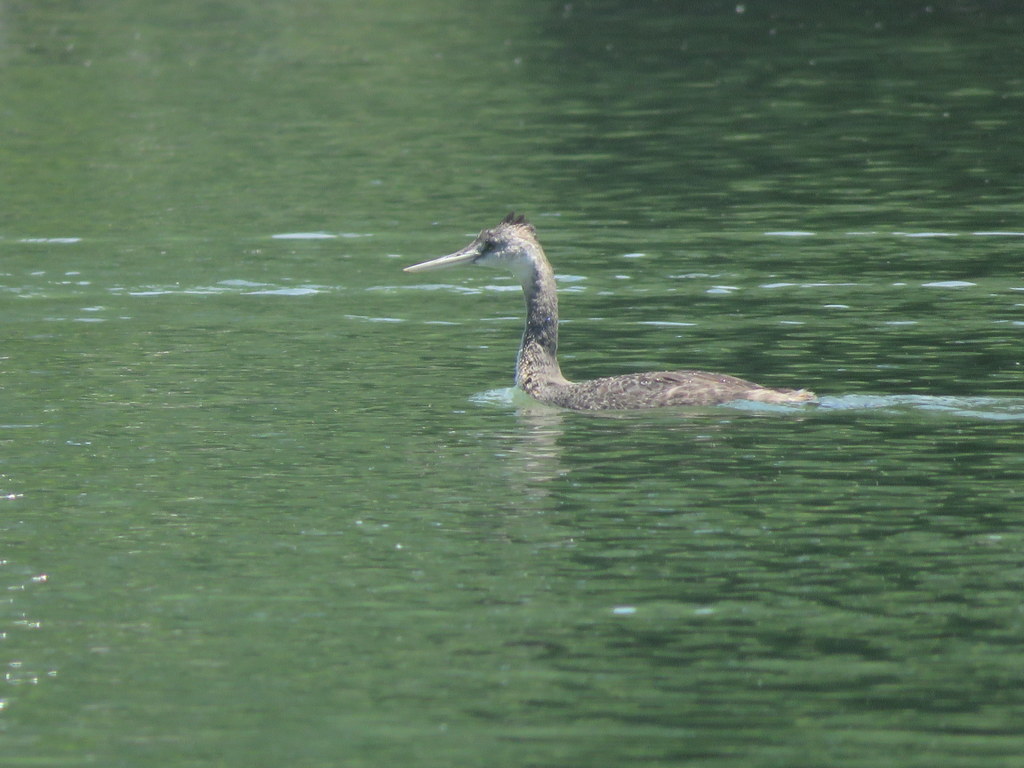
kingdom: Animalia
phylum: Chordata
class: Aves
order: Podicipediformes
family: Podicipedidae
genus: Podiceps
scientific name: Podiceps major
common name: Great grebe
